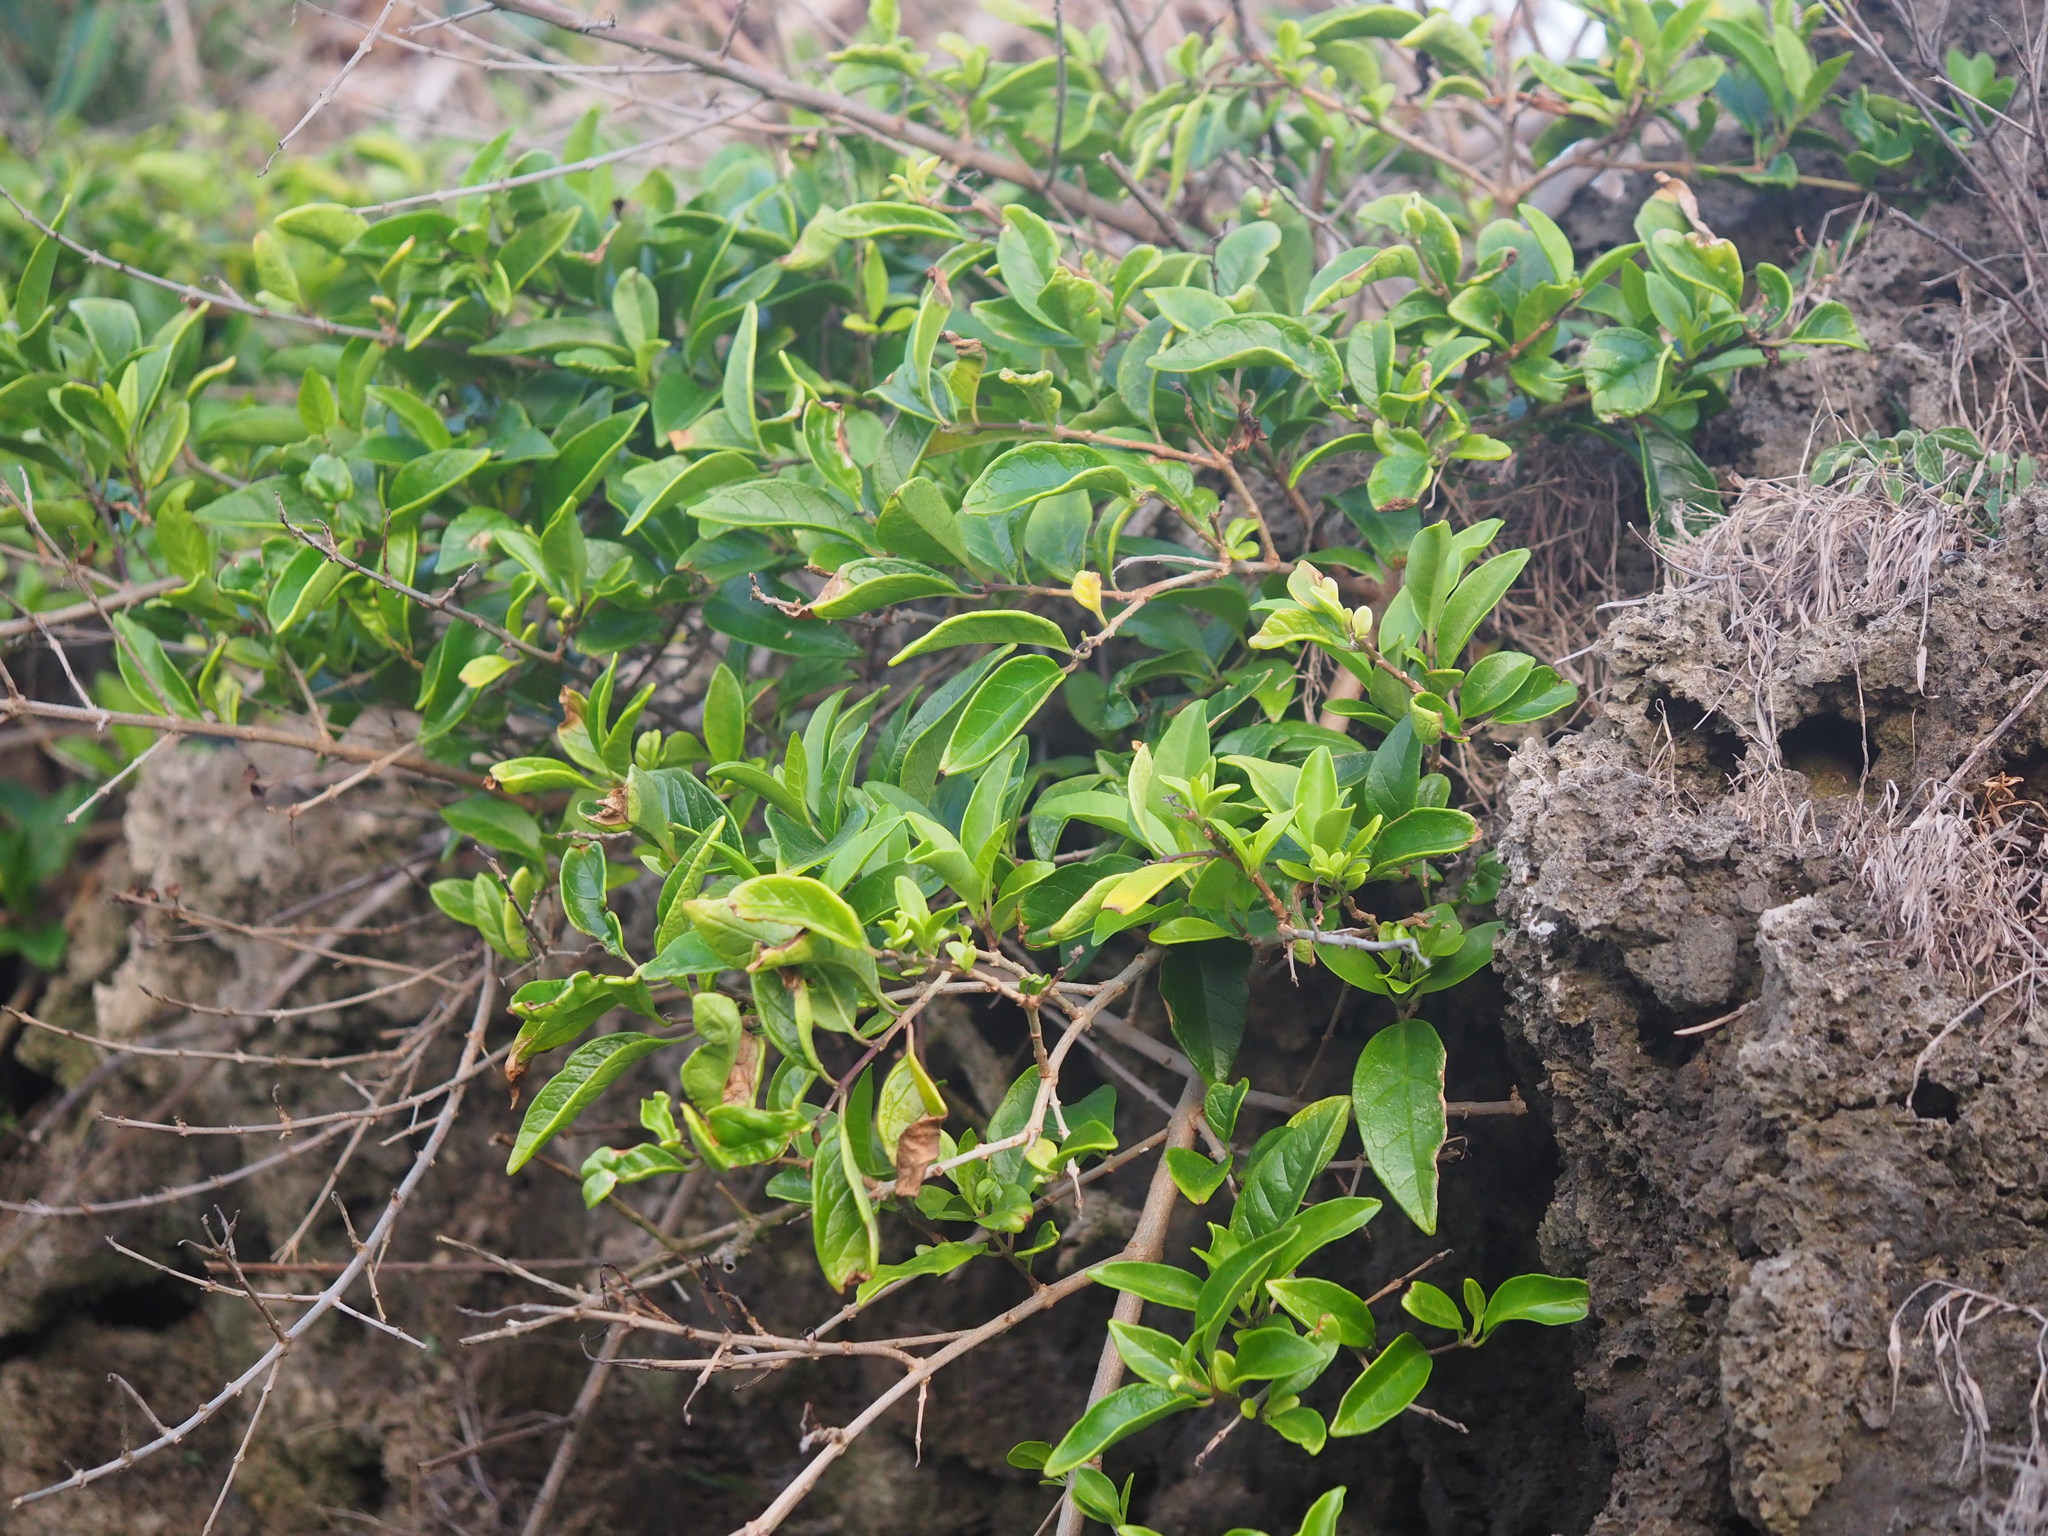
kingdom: Plantae
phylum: Tracheophyta
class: Magnoliopsida
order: Lamiales
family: Lamiaceae
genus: Volkameria
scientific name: Volkameria inermis
